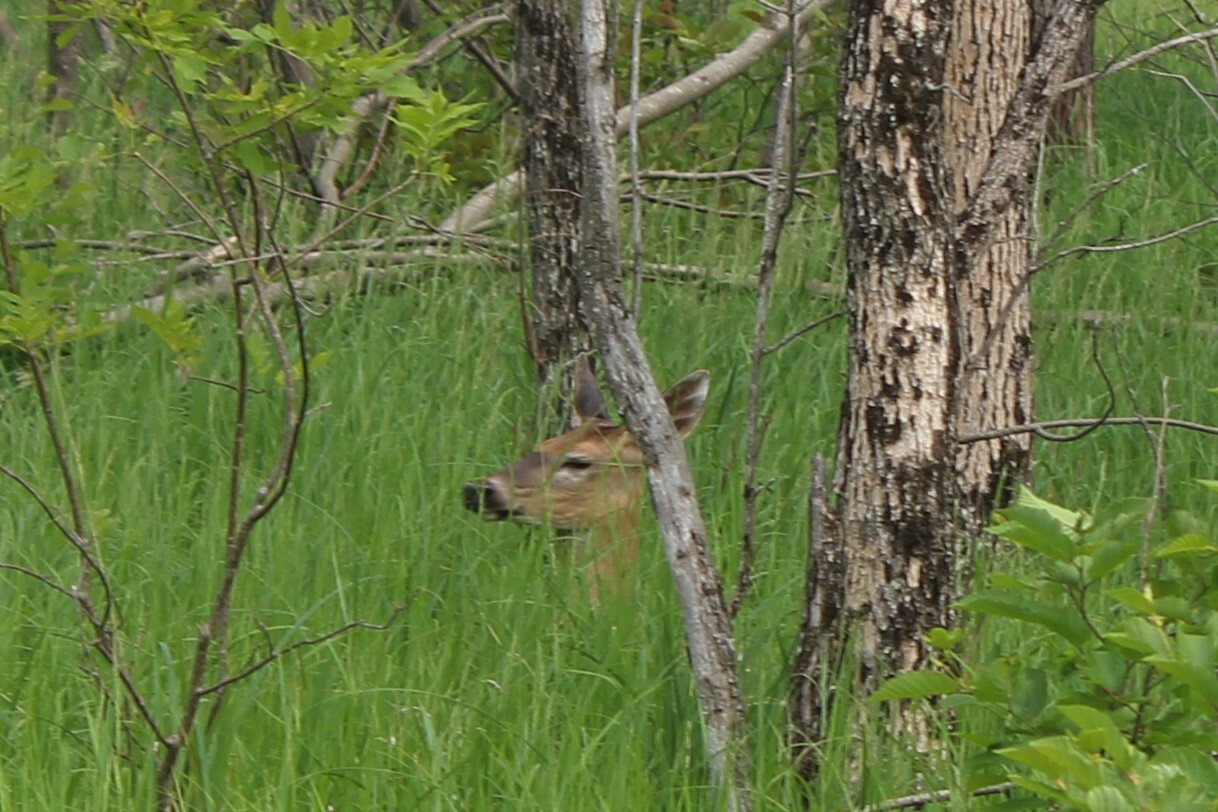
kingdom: Animalia
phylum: Chordata
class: Mammalia
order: Artiodactyla
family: Cervidae
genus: Odocoileus
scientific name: Odocoileus virginianus
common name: White-tailed deer
